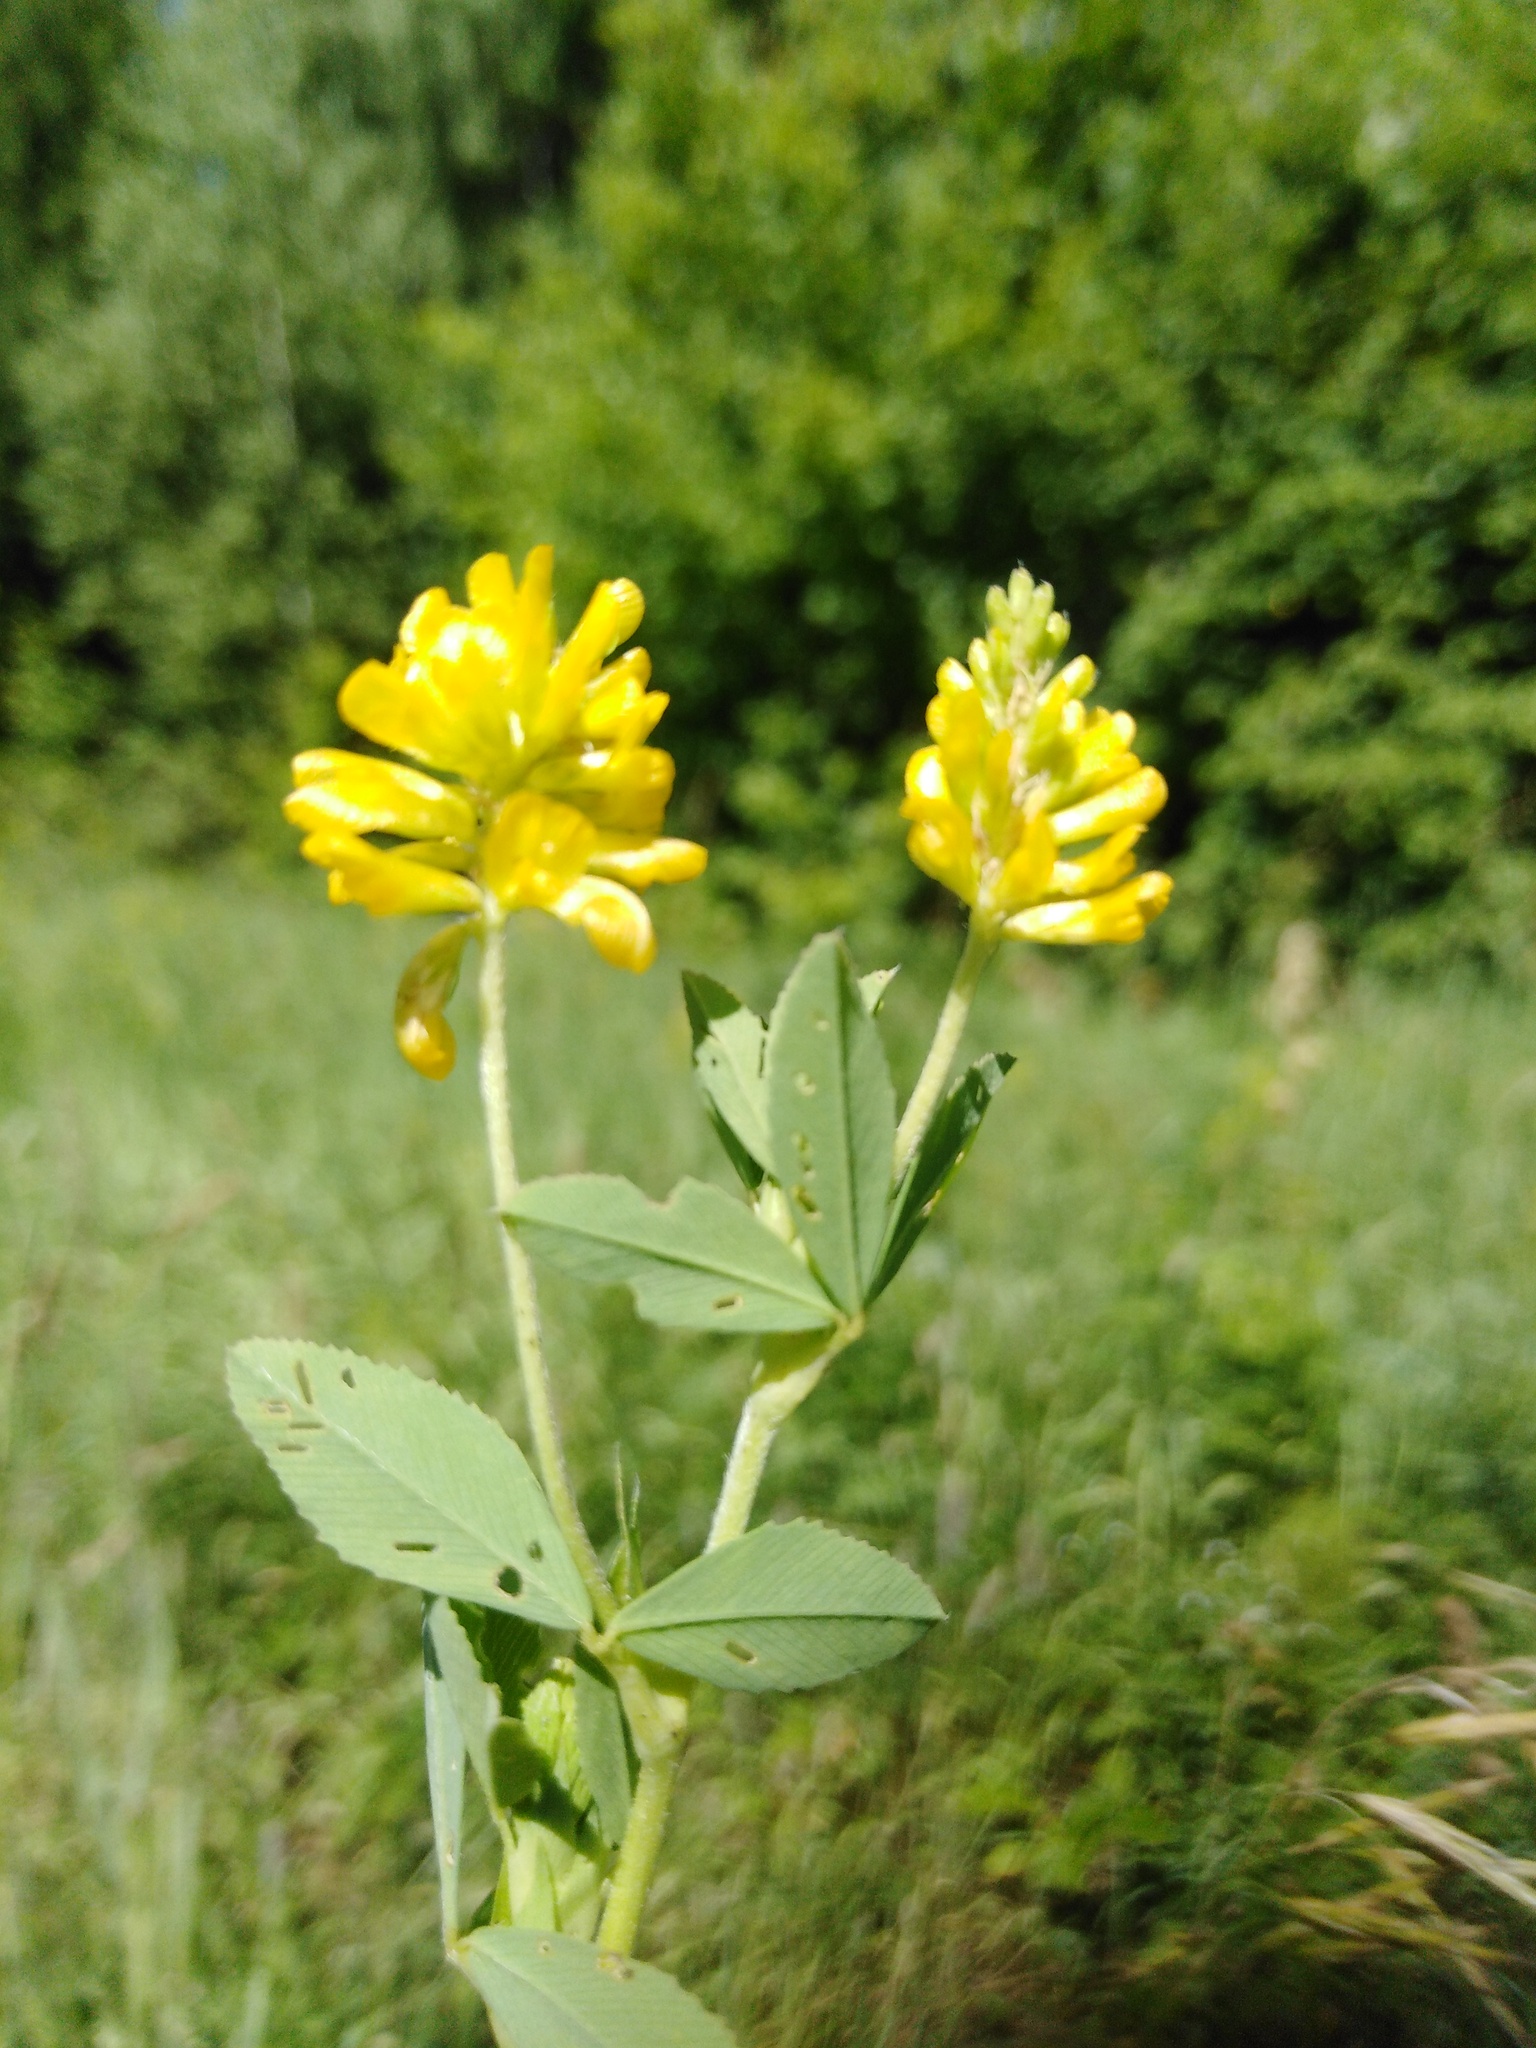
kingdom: Plantae
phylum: Tracheophyta
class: Magnoliopsida
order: Fabales
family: Fabaceae
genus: Trifolium
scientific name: Trifolium aureum
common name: Golden clover
